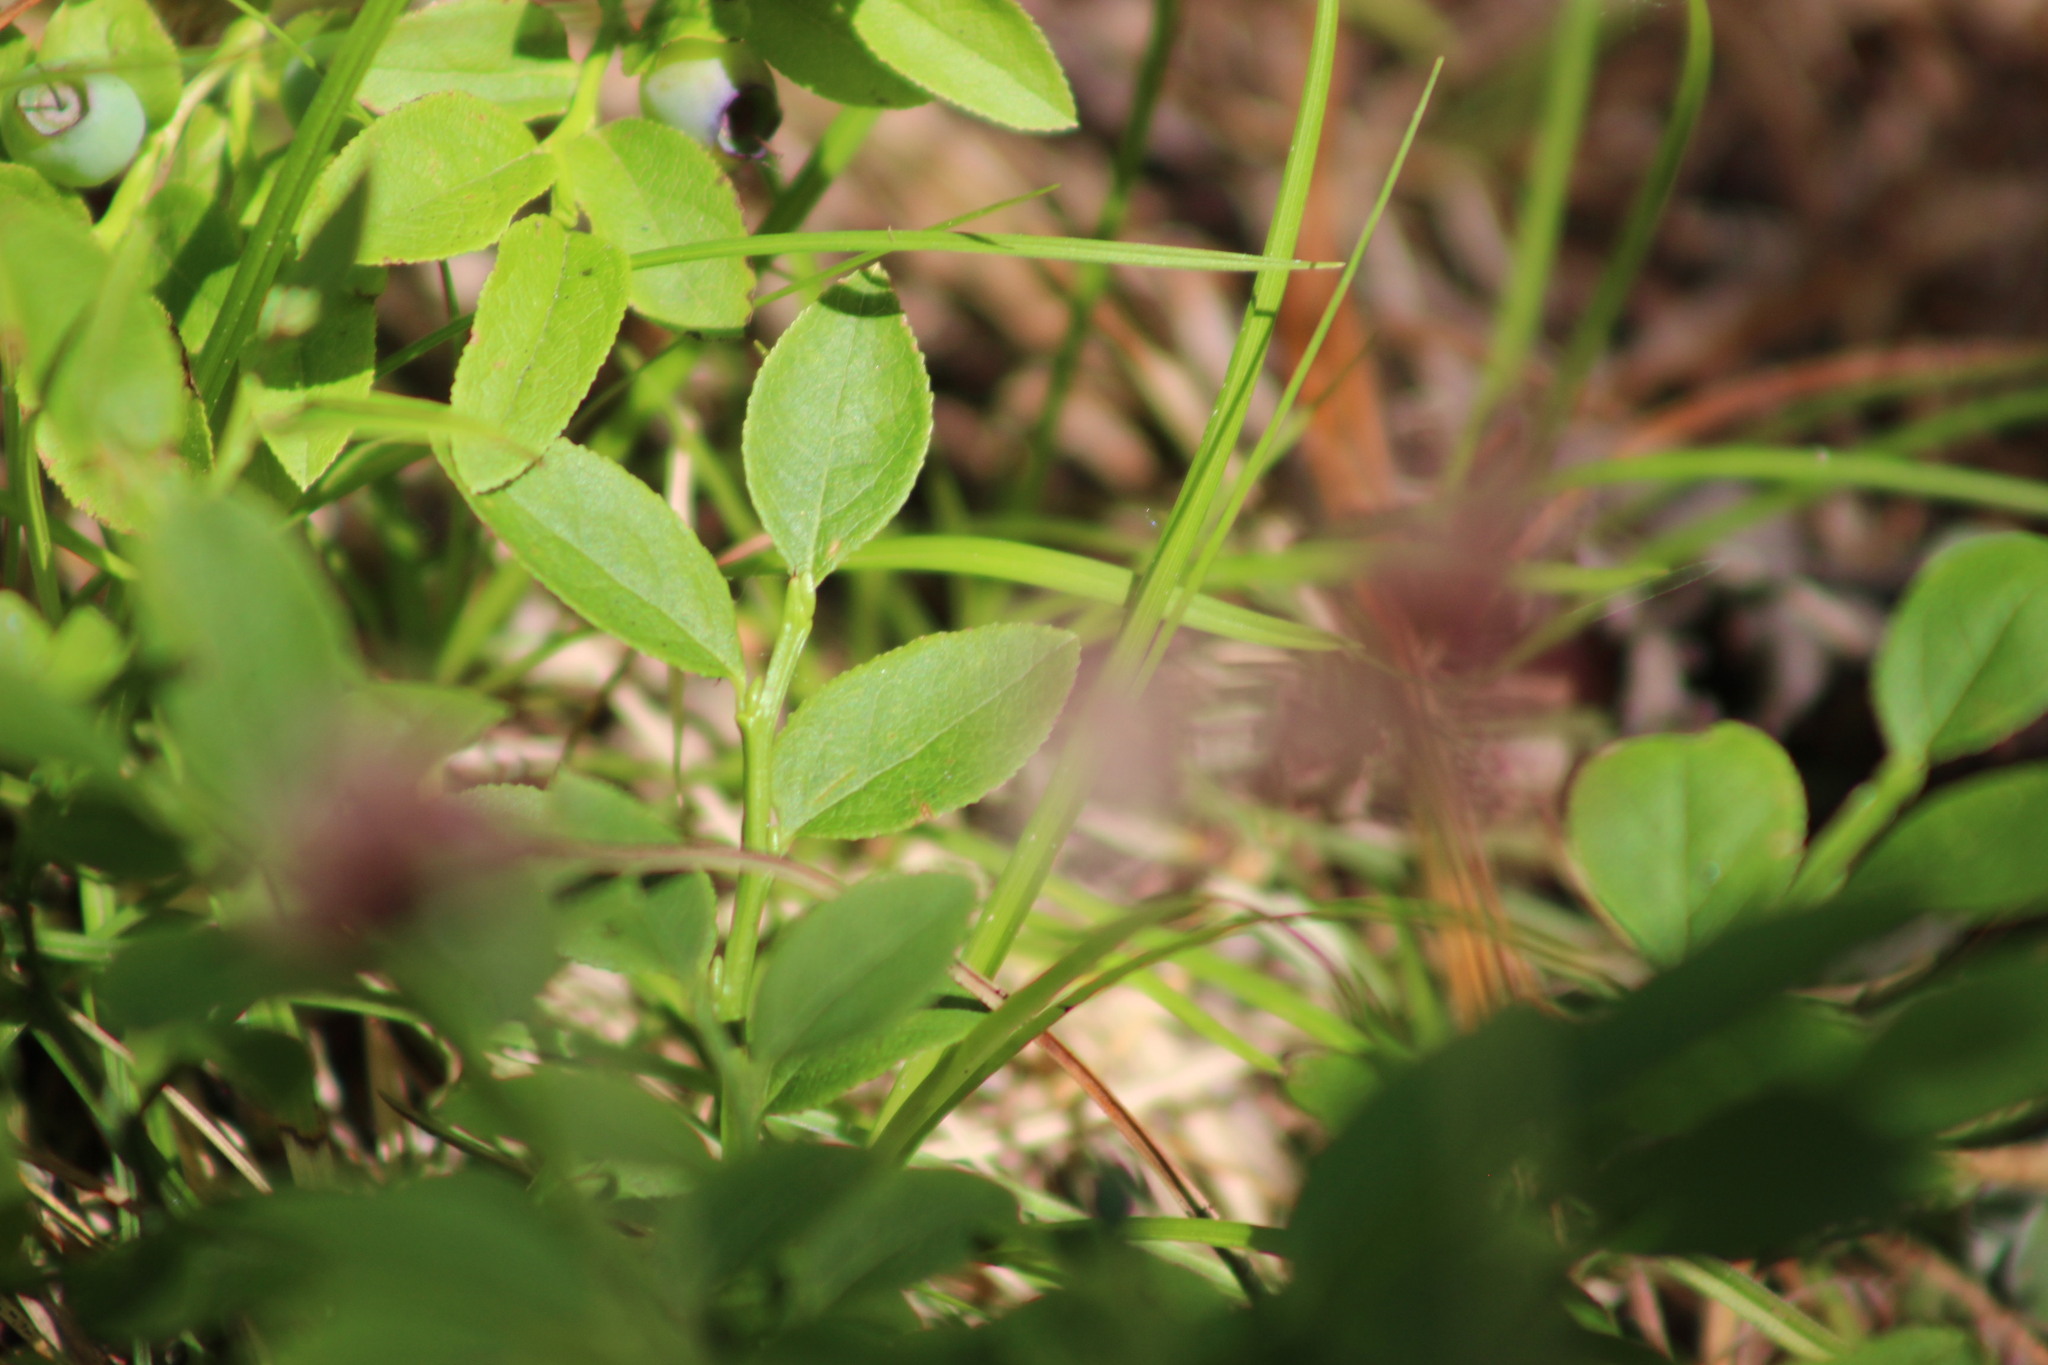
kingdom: Plantae
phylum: Tracheophyta
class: Magnoliopsida
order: Ericales
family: Ericaceae
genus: Vaccinium
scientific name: Vaccinium myrtillus
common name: Bilberry
